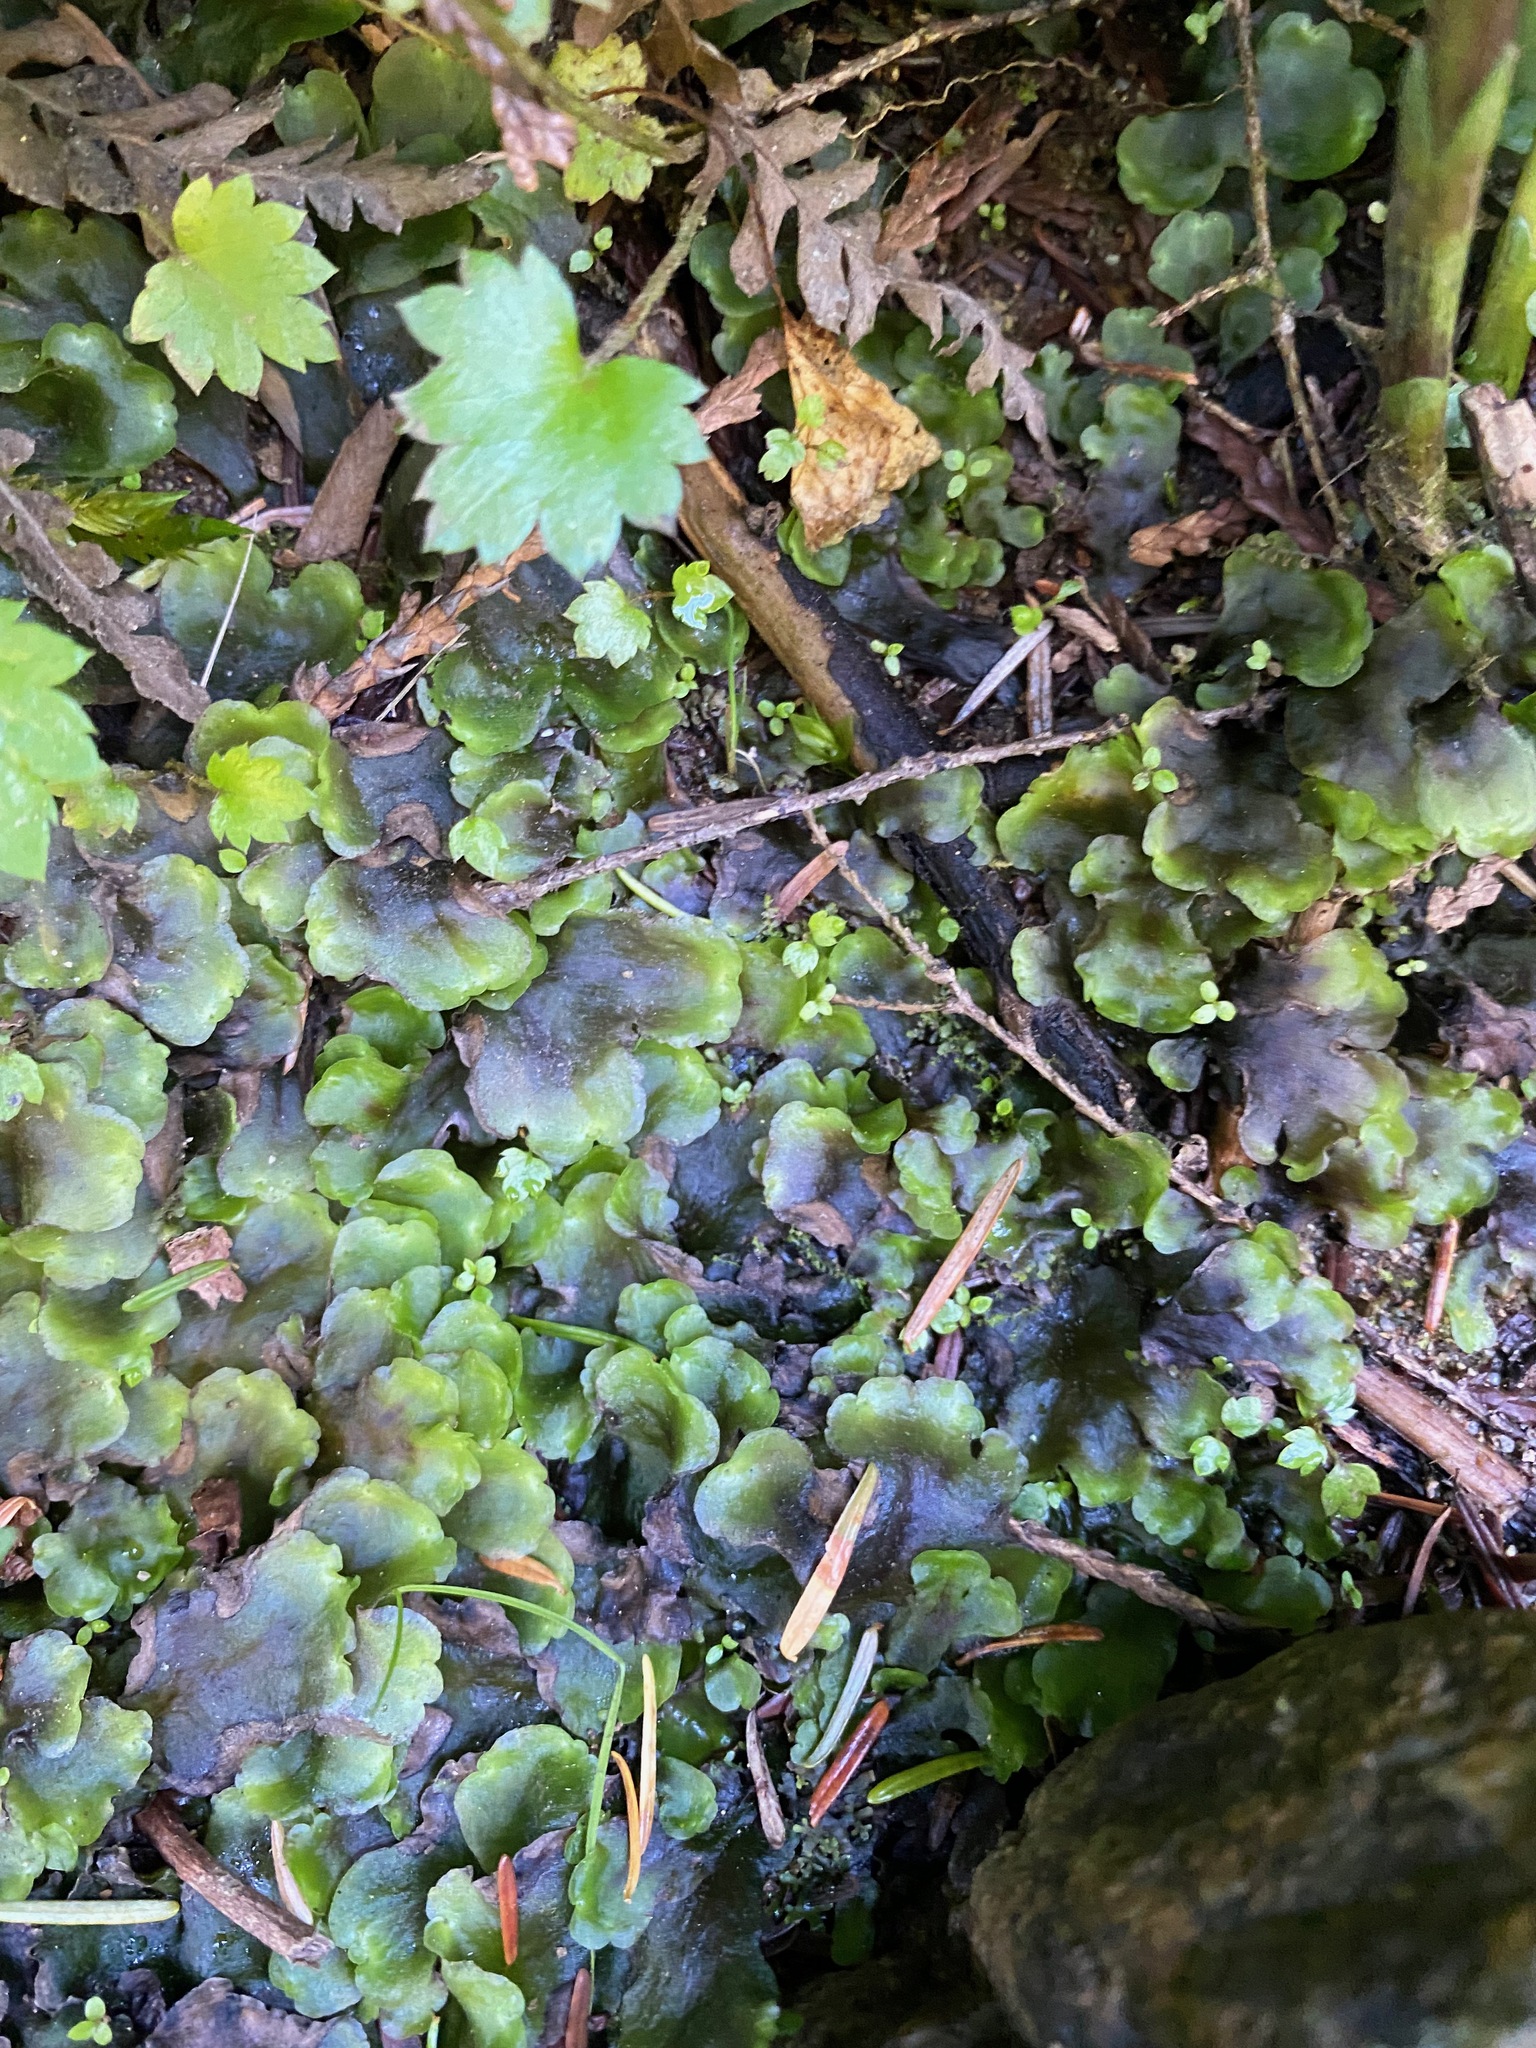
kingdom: Plantae
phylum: Marchantiophyta
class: Jungermanniopsida
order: Pelliales
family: Pelliaceae
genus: Pellia
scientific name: Pellia neesiana
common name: Nees  pellia
